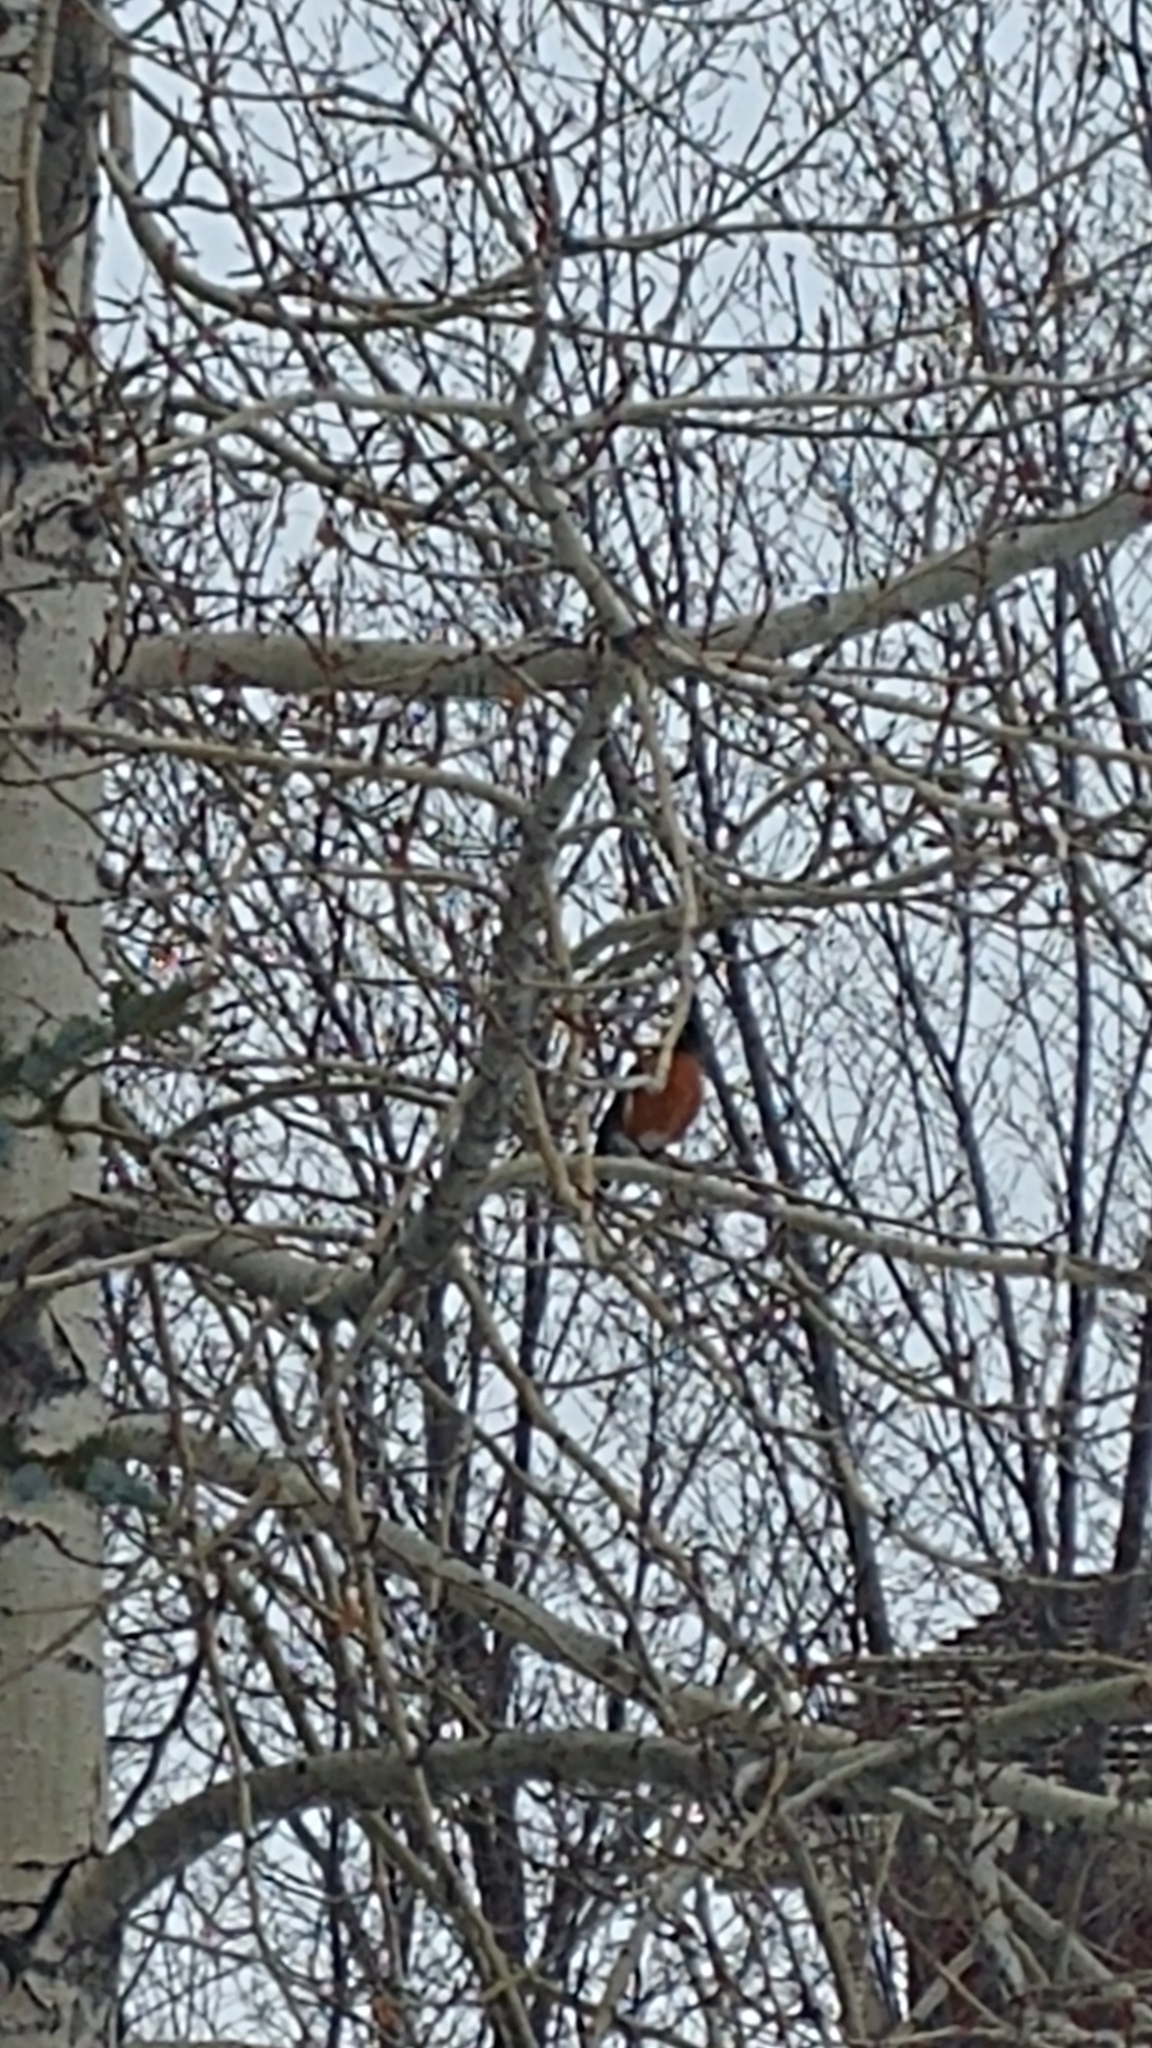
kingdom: Animalia
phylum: Chordata
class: Aves
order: Passeriformes
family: Turdidae
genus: Turdus
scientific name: Turdus migratorius
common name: American robin
